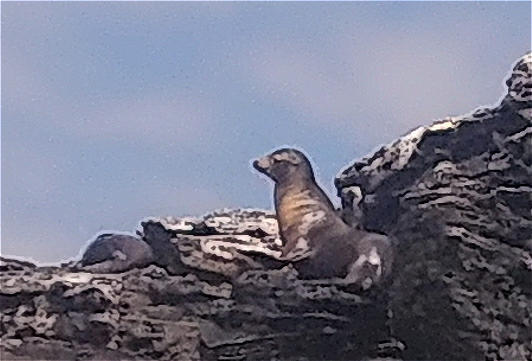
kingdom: Animalia
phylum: Chordata
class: Mammalia
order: Carnivora
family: Otariidae
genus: Zalophus
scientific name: Zalophus wollebaeki
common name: Galapagos sea lion
